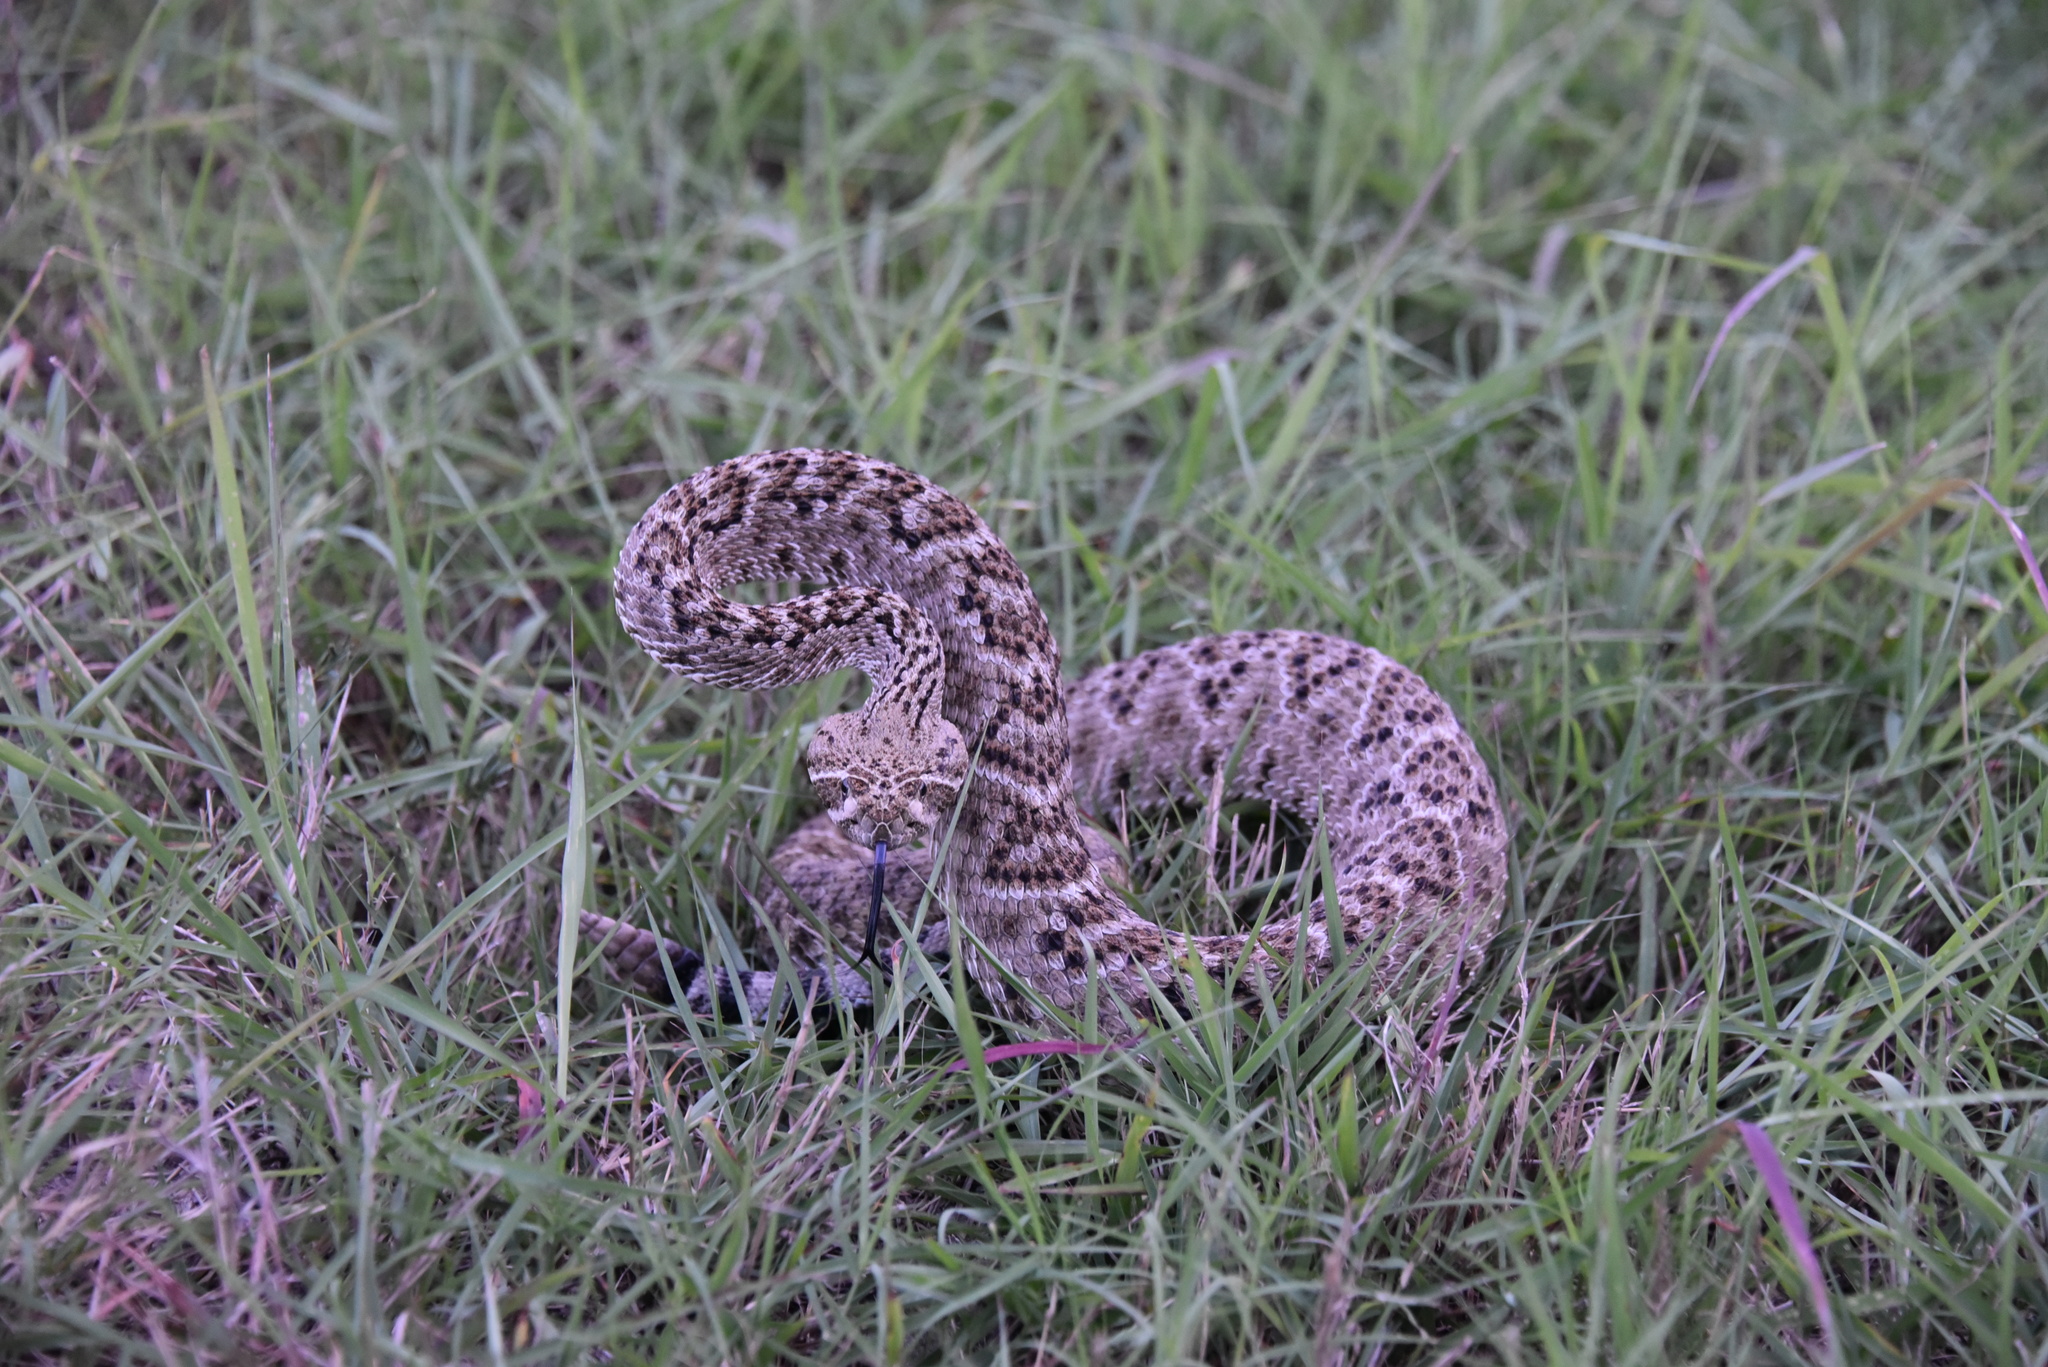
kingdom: Animalia
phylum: Chordata
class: Squamata
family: Viperidae
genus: Crotalus
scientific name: Crotalus atrox
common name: Western diamond-backed rattlesnake
